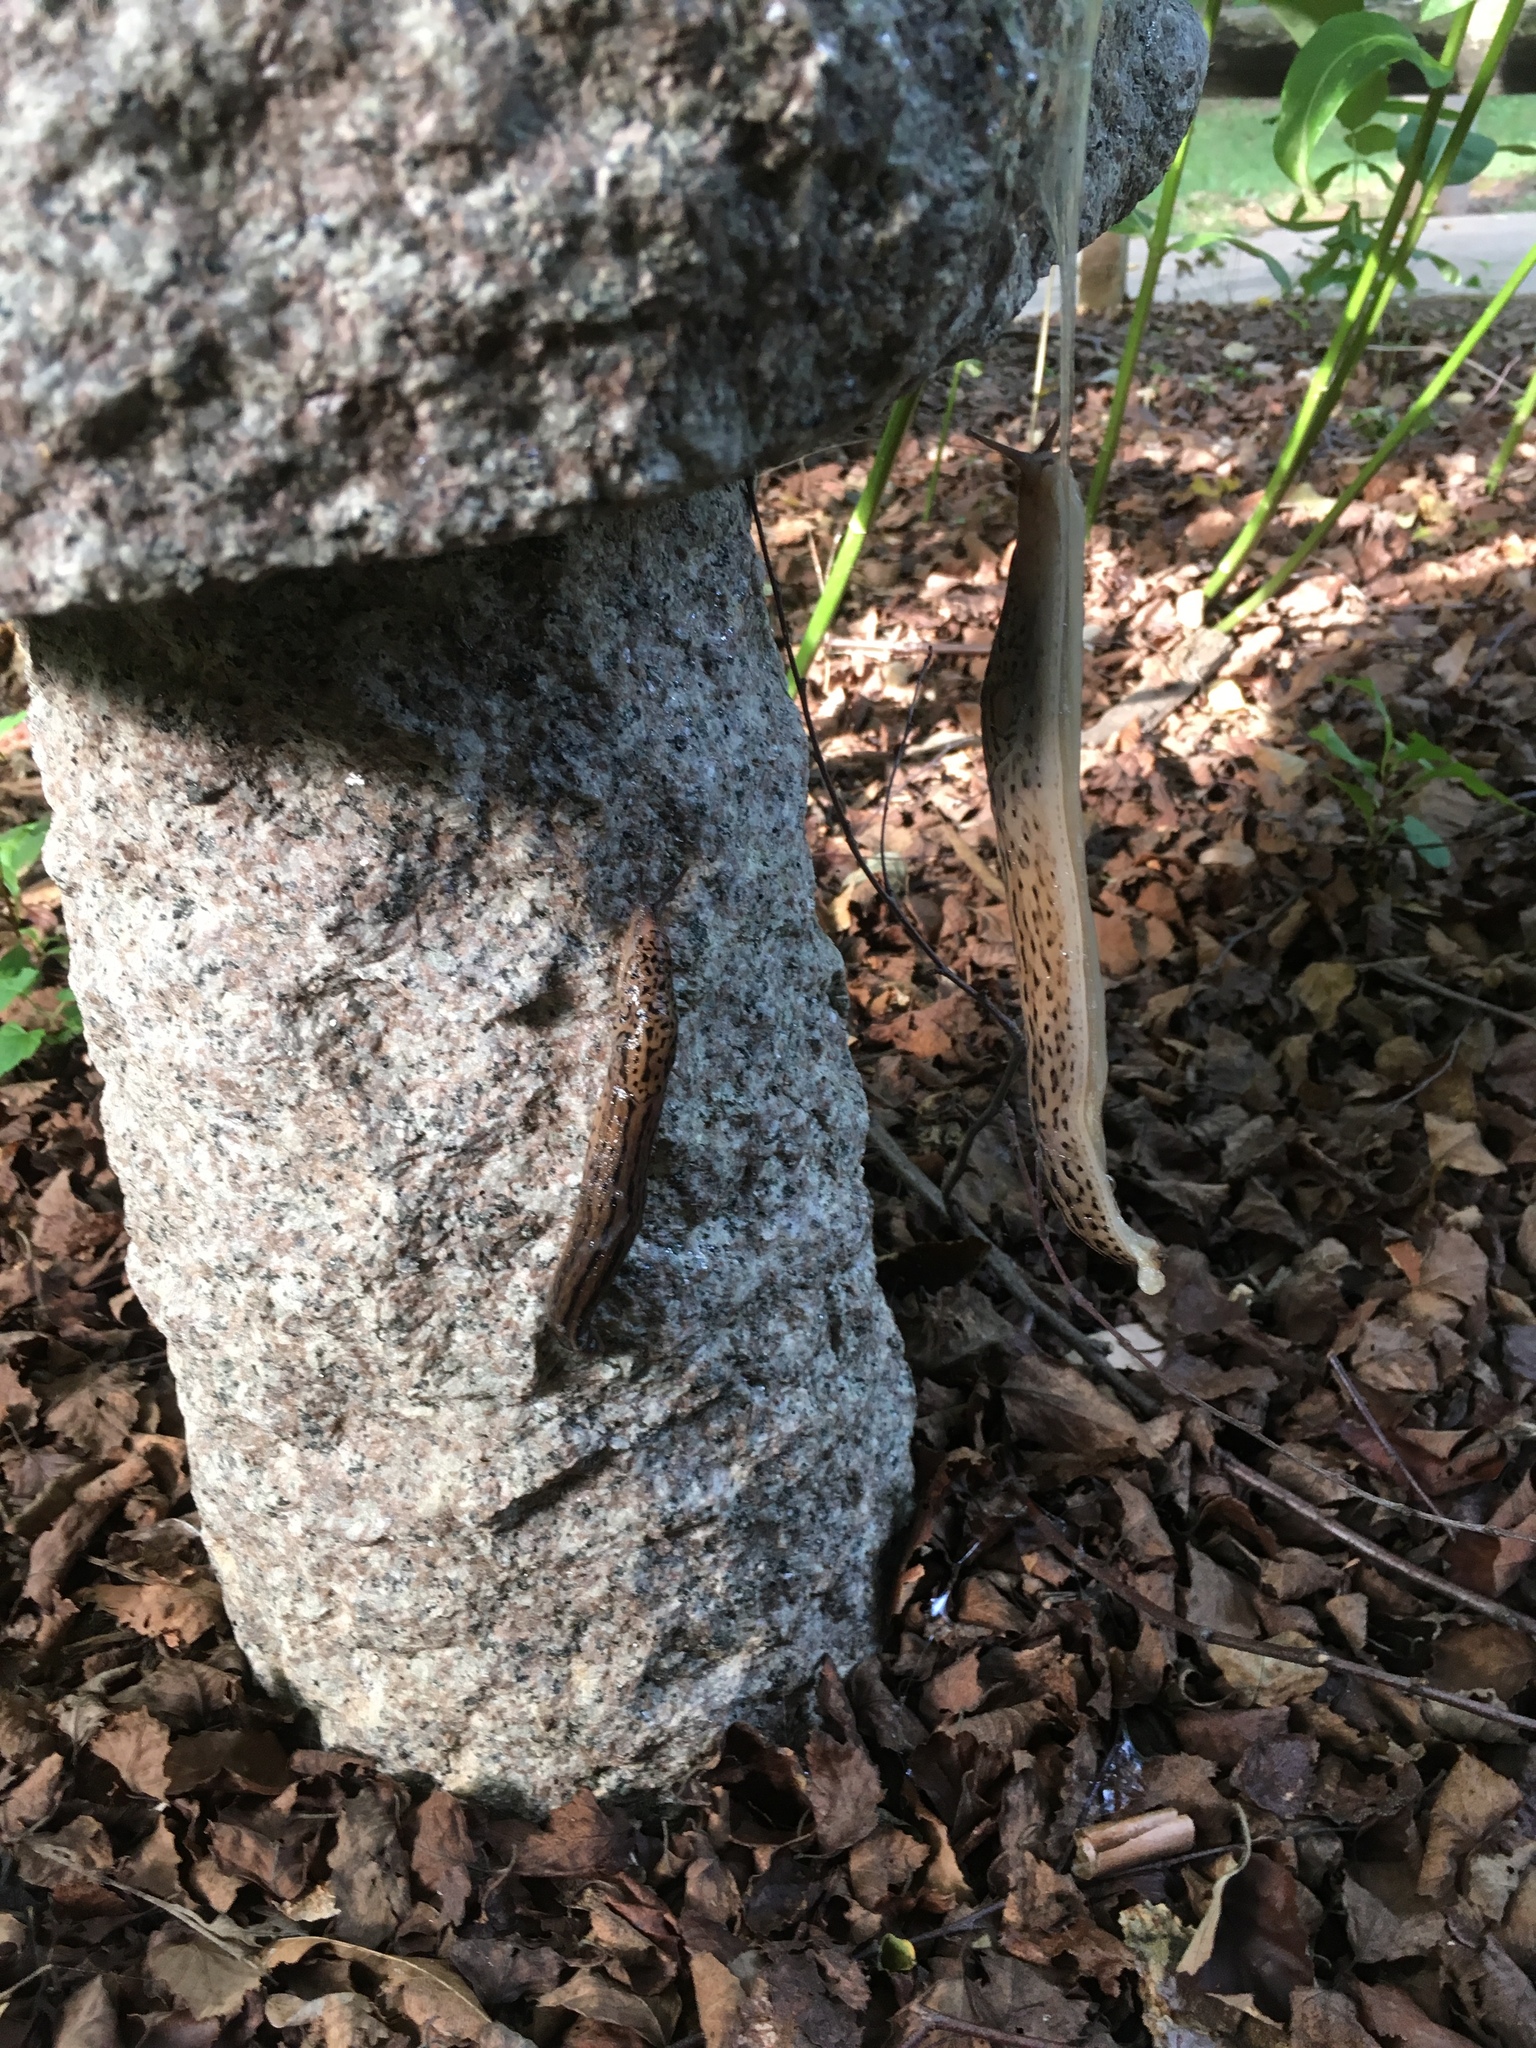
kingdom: Animalia
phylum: Mollusca
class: Gastropoda
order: Stylommatophora
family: Limacidae
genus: Limax
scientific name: Limax maximus
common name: Great grey slug
